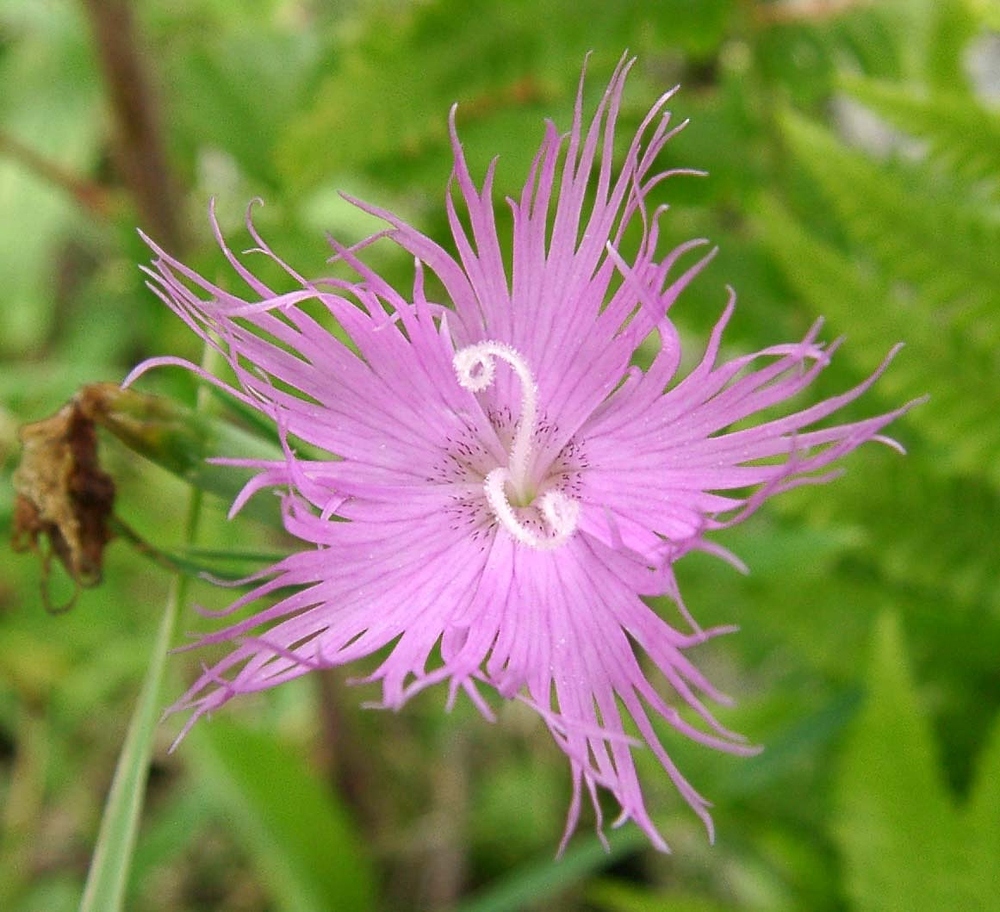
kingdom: Plantae
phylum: Tracheophyta
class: Magnoliopsida
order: Caryophyllales
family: Caryophyllaceae
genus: Dianthus
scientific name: Dianthus hyssopifolius
